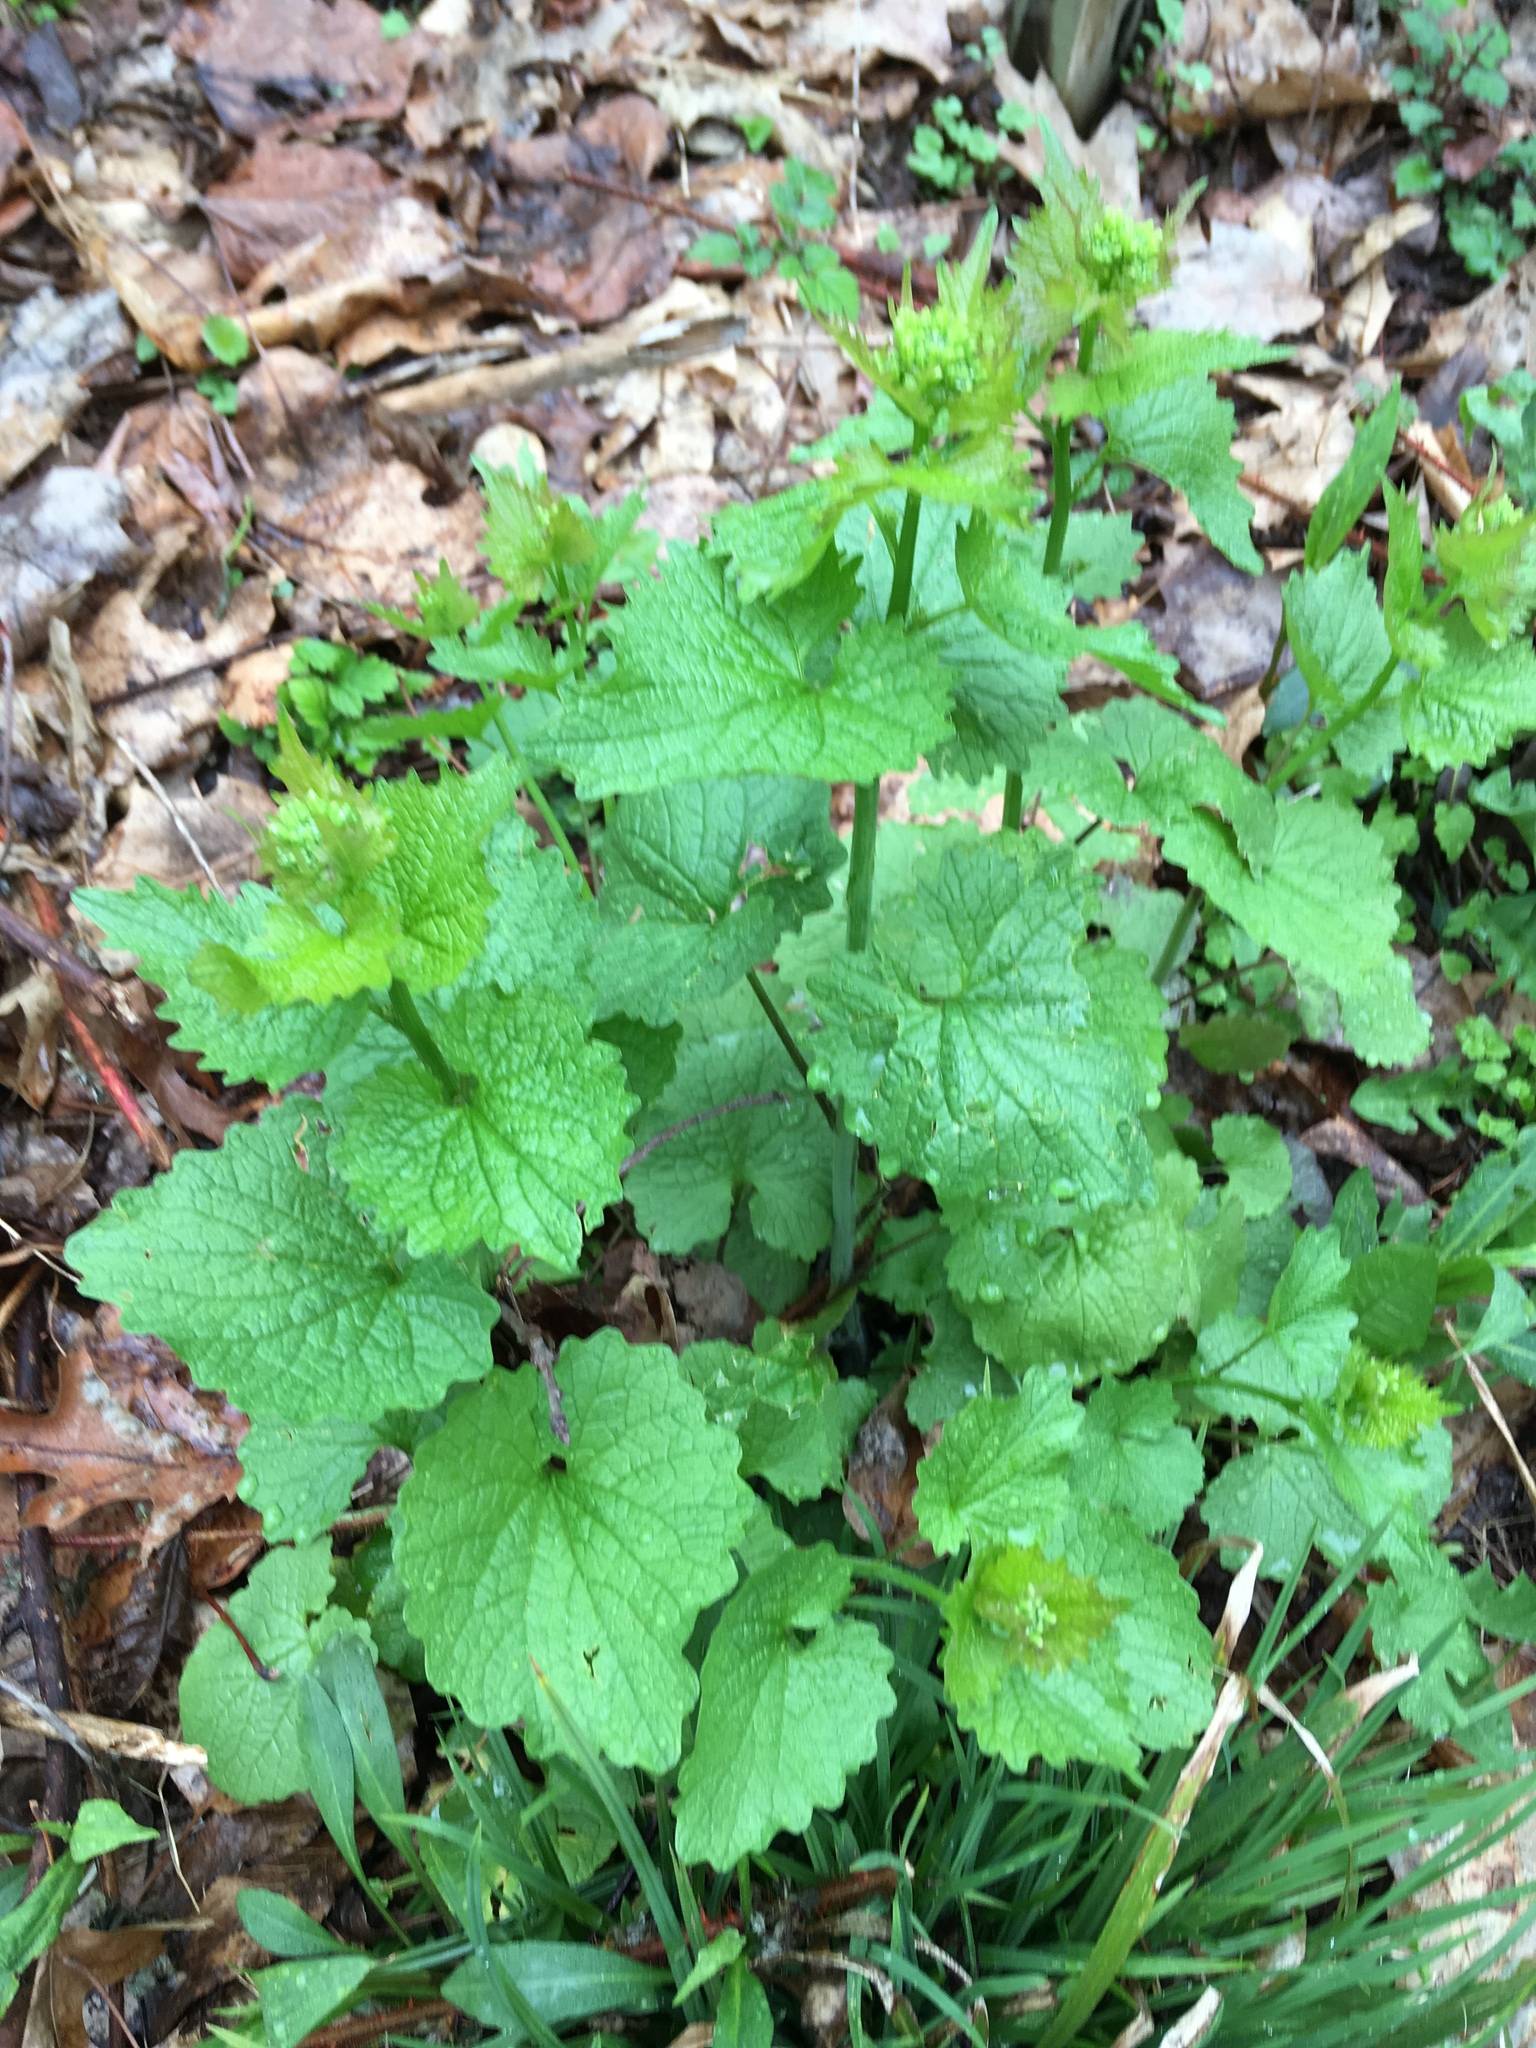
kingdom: Plantae
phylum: Tracheophyta
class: Magnoliopsida
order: Brassicales
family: Brassicaceae
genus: Alliaria
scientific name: Alliaria petiolata
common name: Garlic mustard
